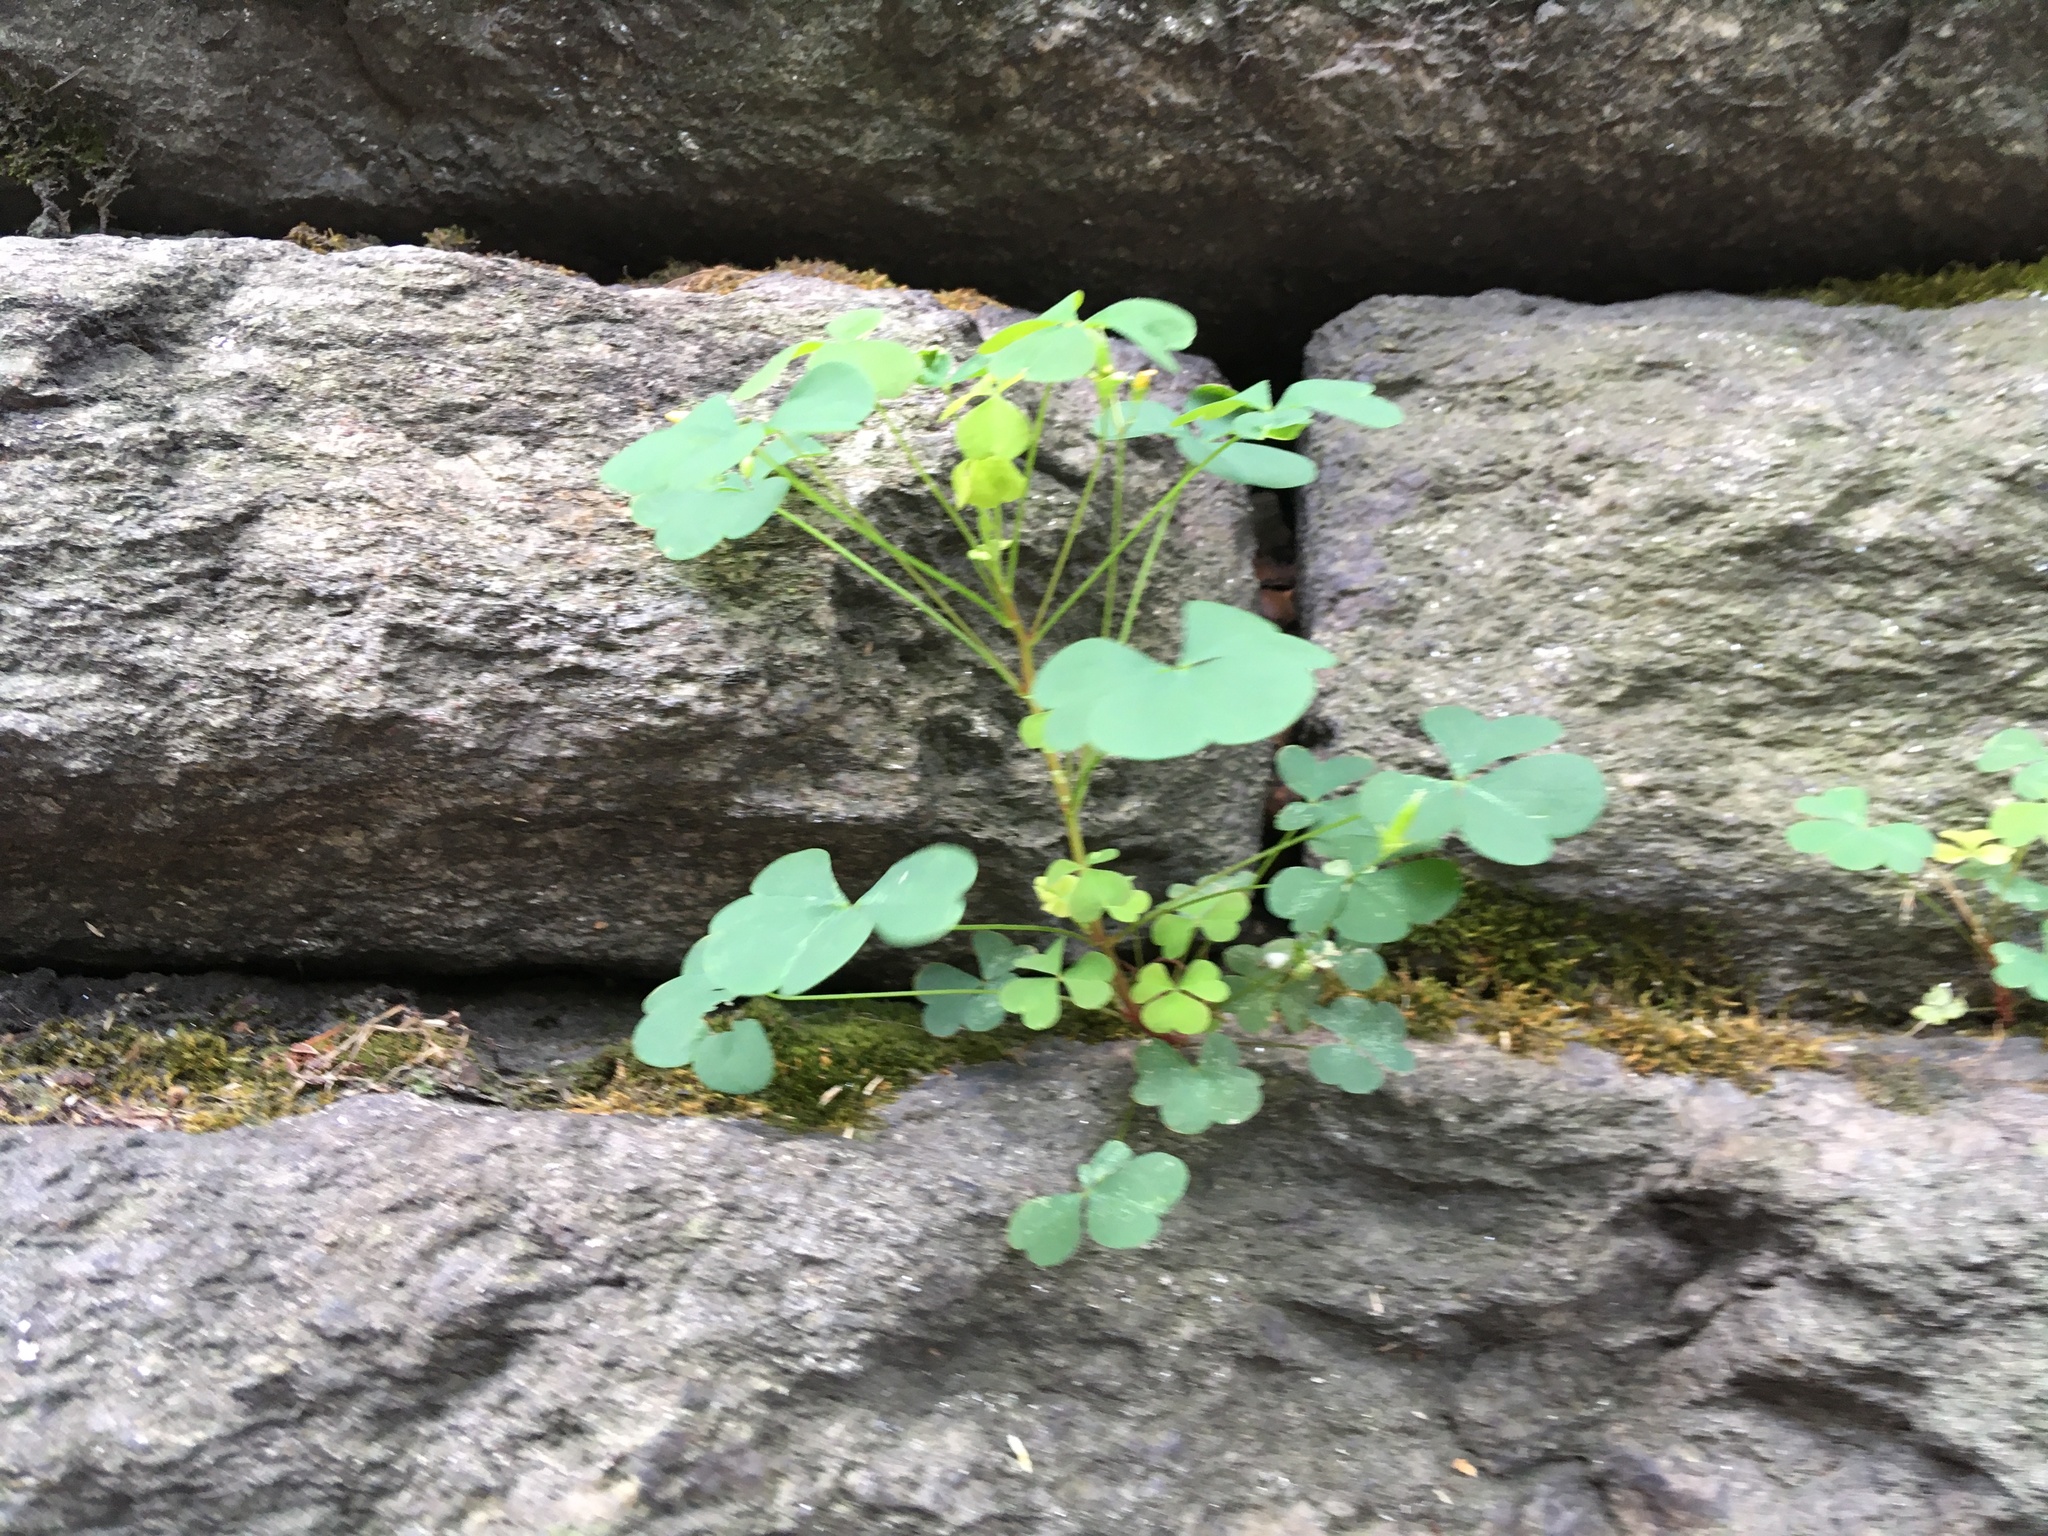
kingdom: Plantae
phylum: Tracheophyta
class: Magnoliopsida
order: Oxalidales
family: Oxalidaceae
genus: Oxalis
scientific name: Oxalis corniculata
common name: Procumbent yellow-sorrel
